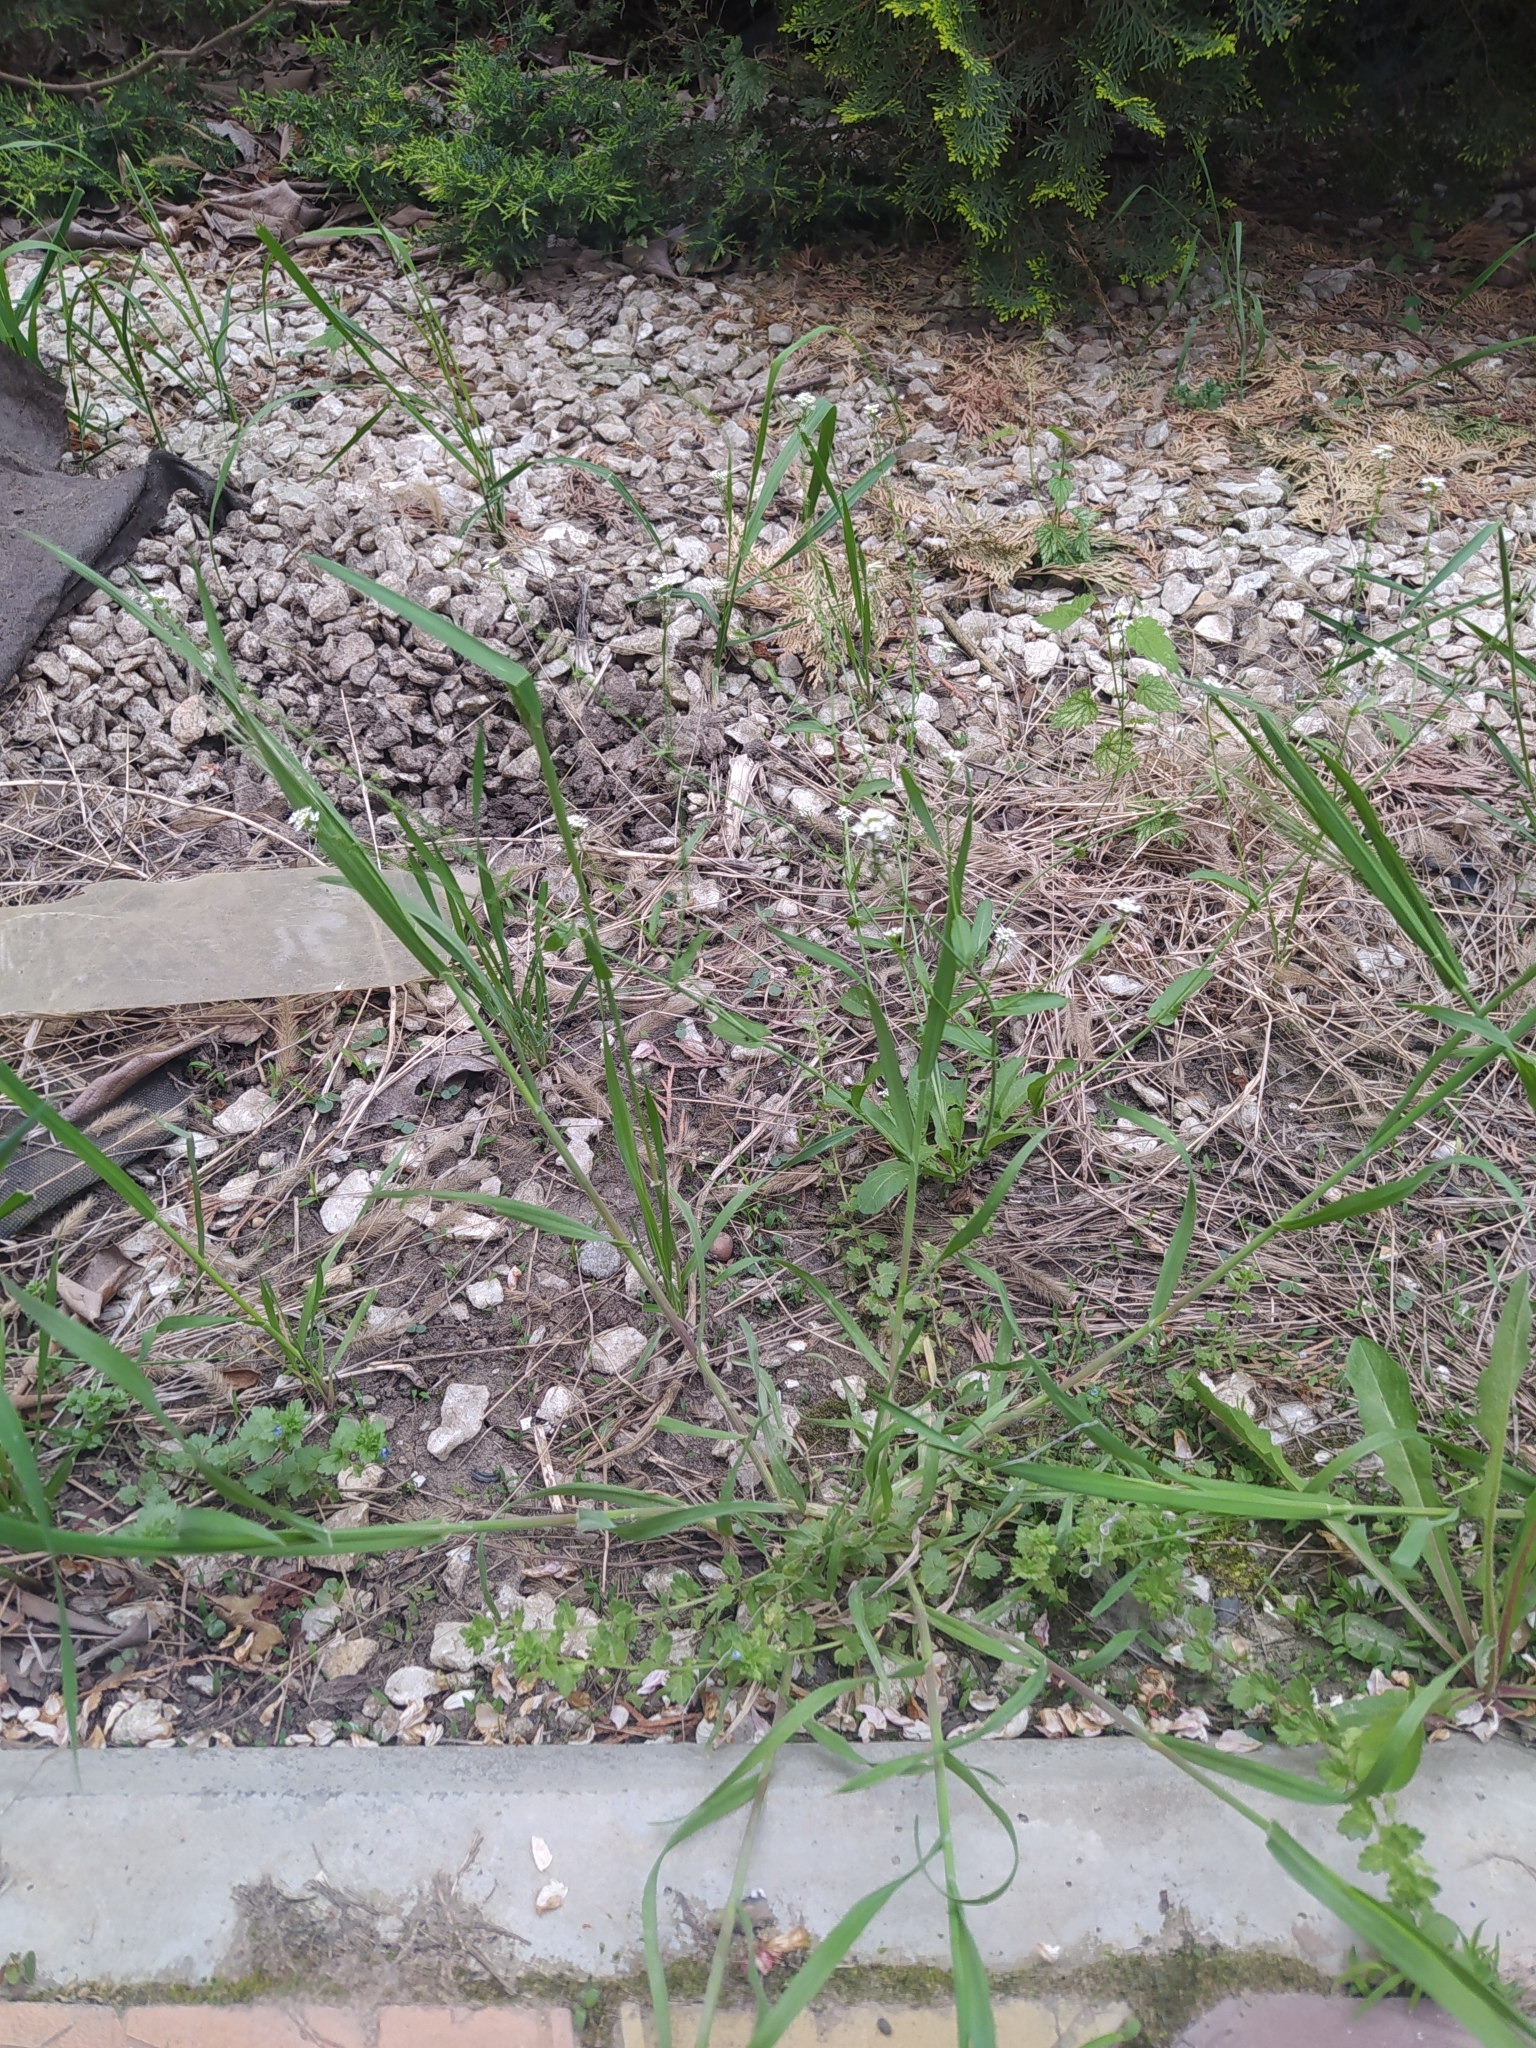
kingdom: Plantae
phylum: Tracheophyta
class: Magnoliopsida
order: Brassicales
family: Brassicaceae
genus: Calepina
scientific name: Calepina irregularis
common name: White ballmustard
